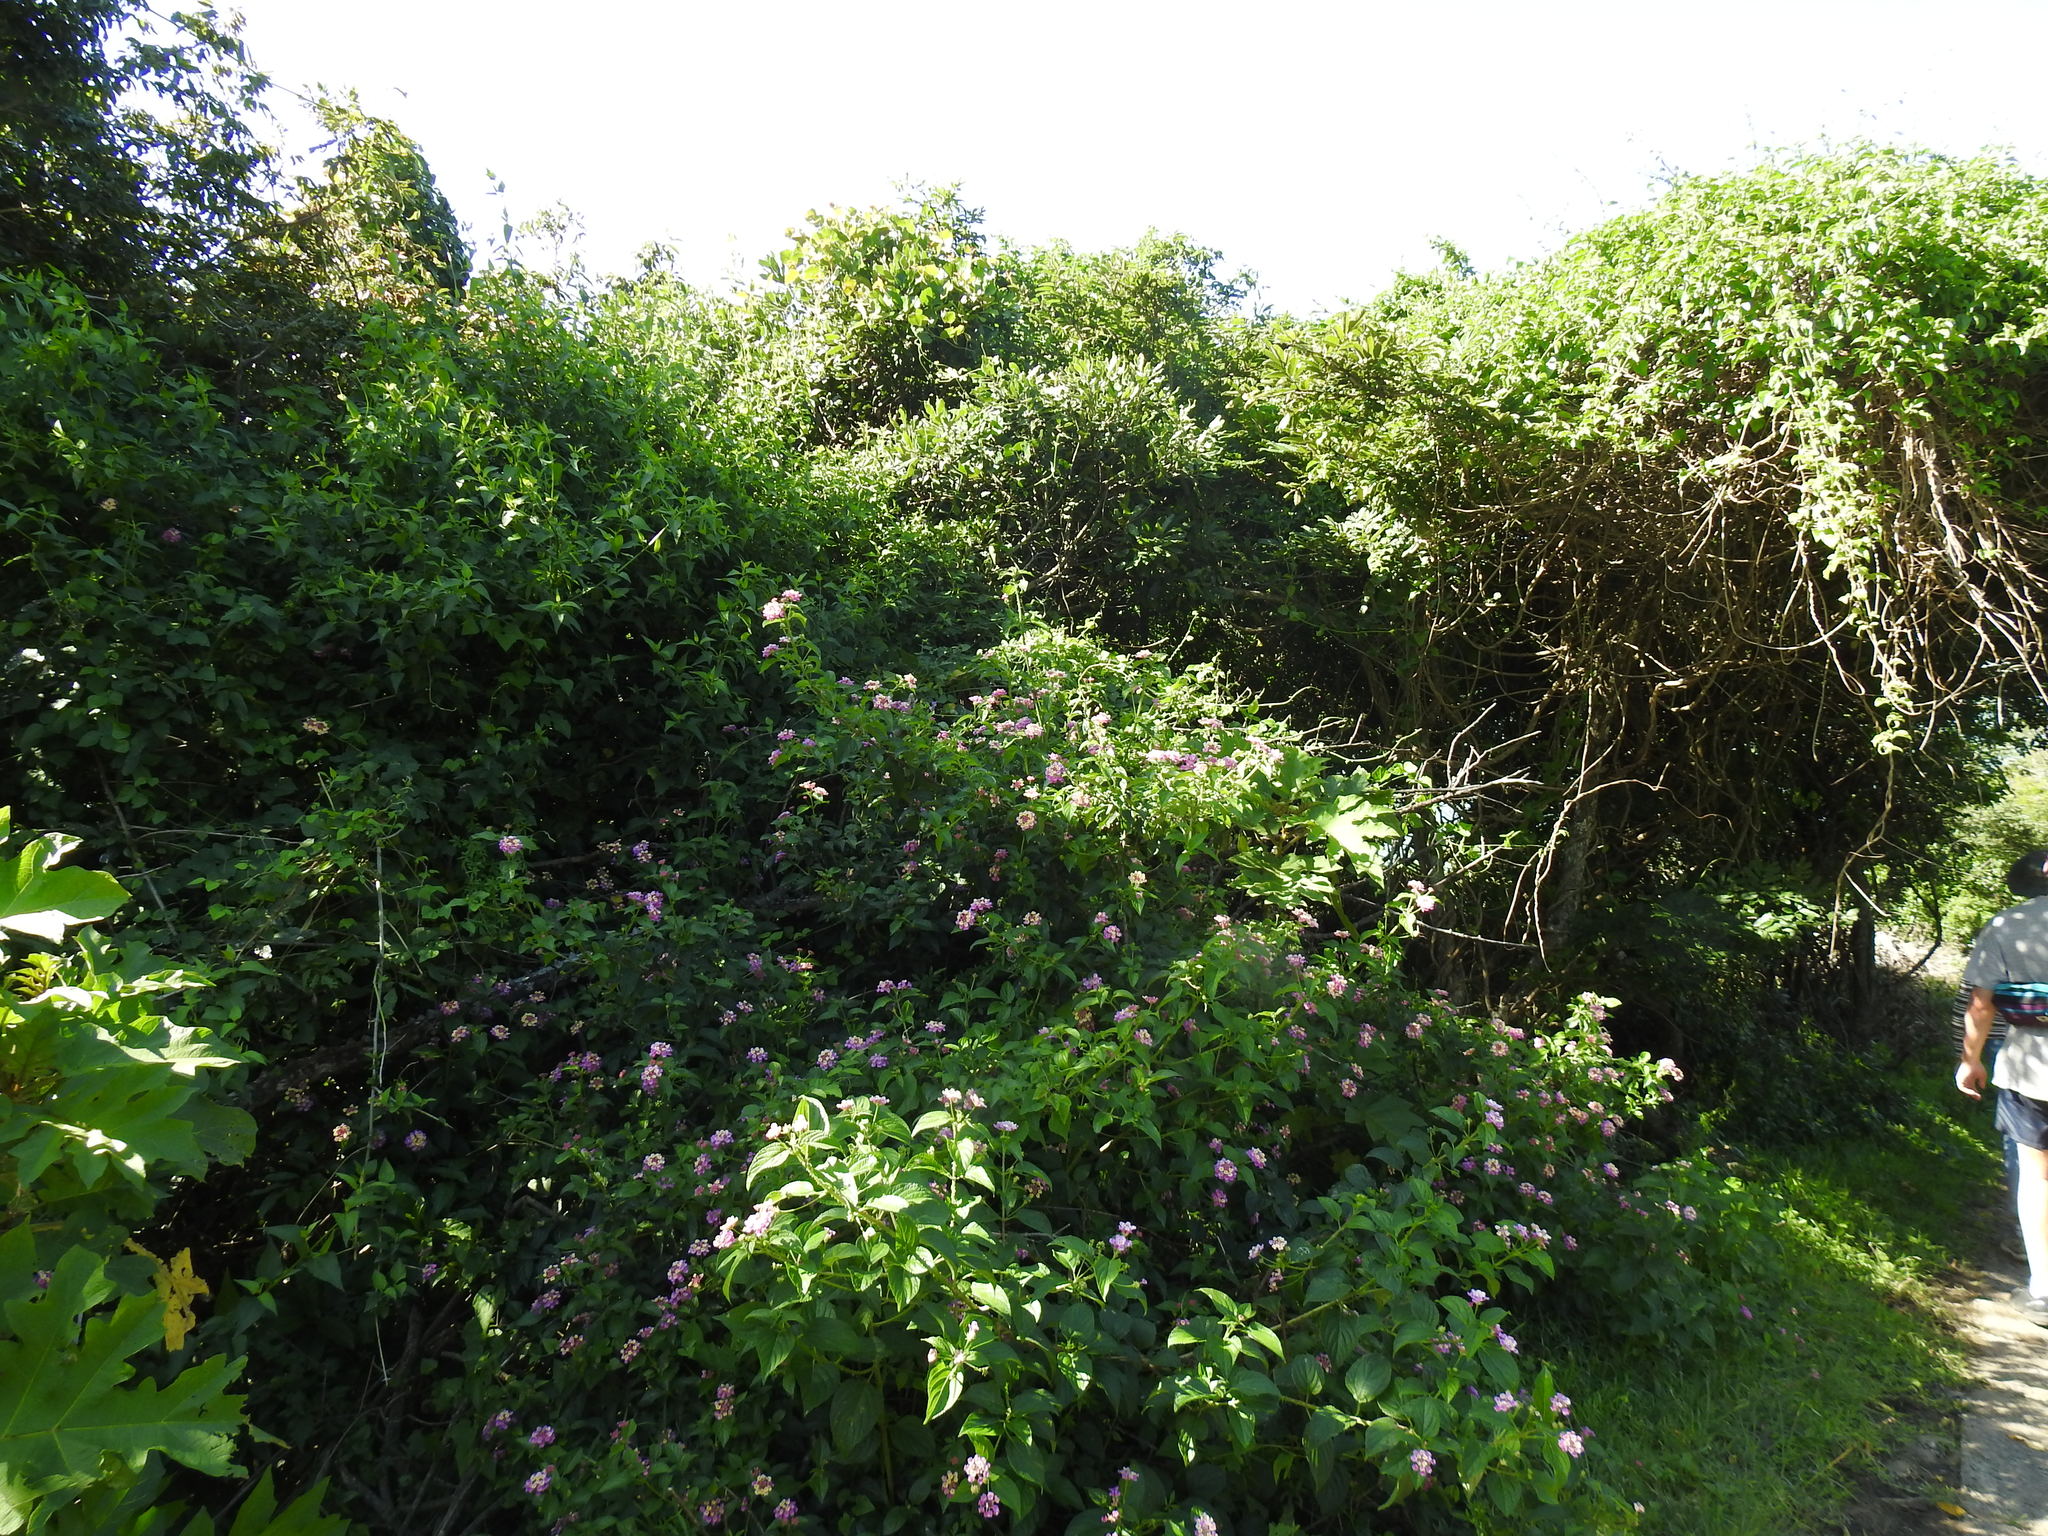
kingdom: Plantae
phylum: Tracheophyta
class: Magnoliopsida
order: Lamiales
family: Verbenaceae
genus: Lantana
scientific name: Lantana camara
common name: Lantana
